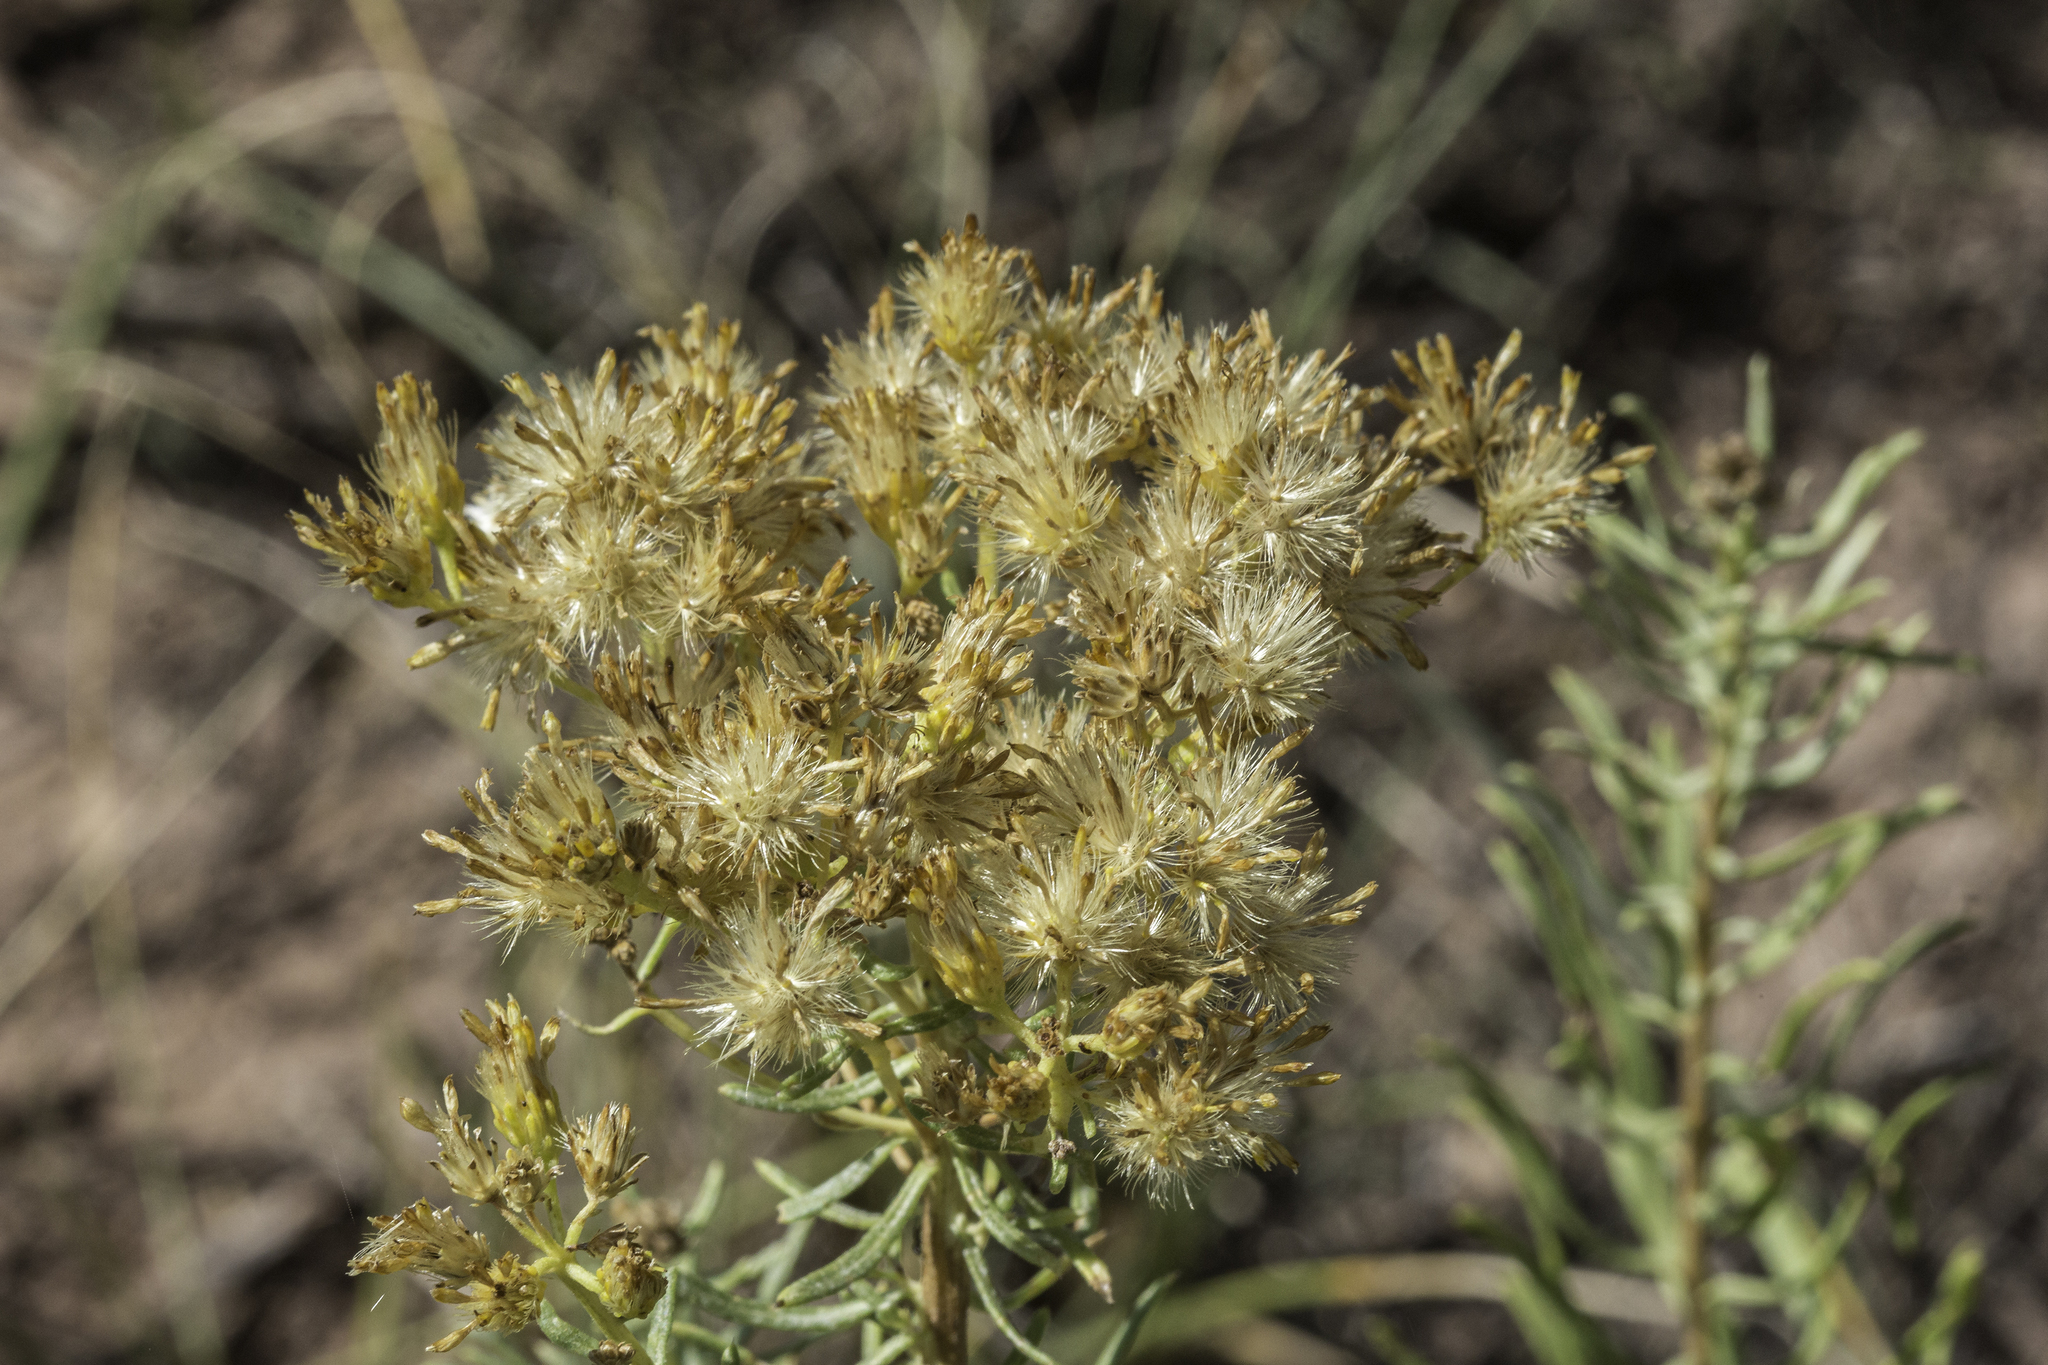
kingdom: Plantae
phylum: Tracheophyta
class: Magnoliopsida
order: Asterales
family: Asteraceae
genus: Isocoma
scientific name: Isocoma pluriflora
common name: Southern jimmyweed
